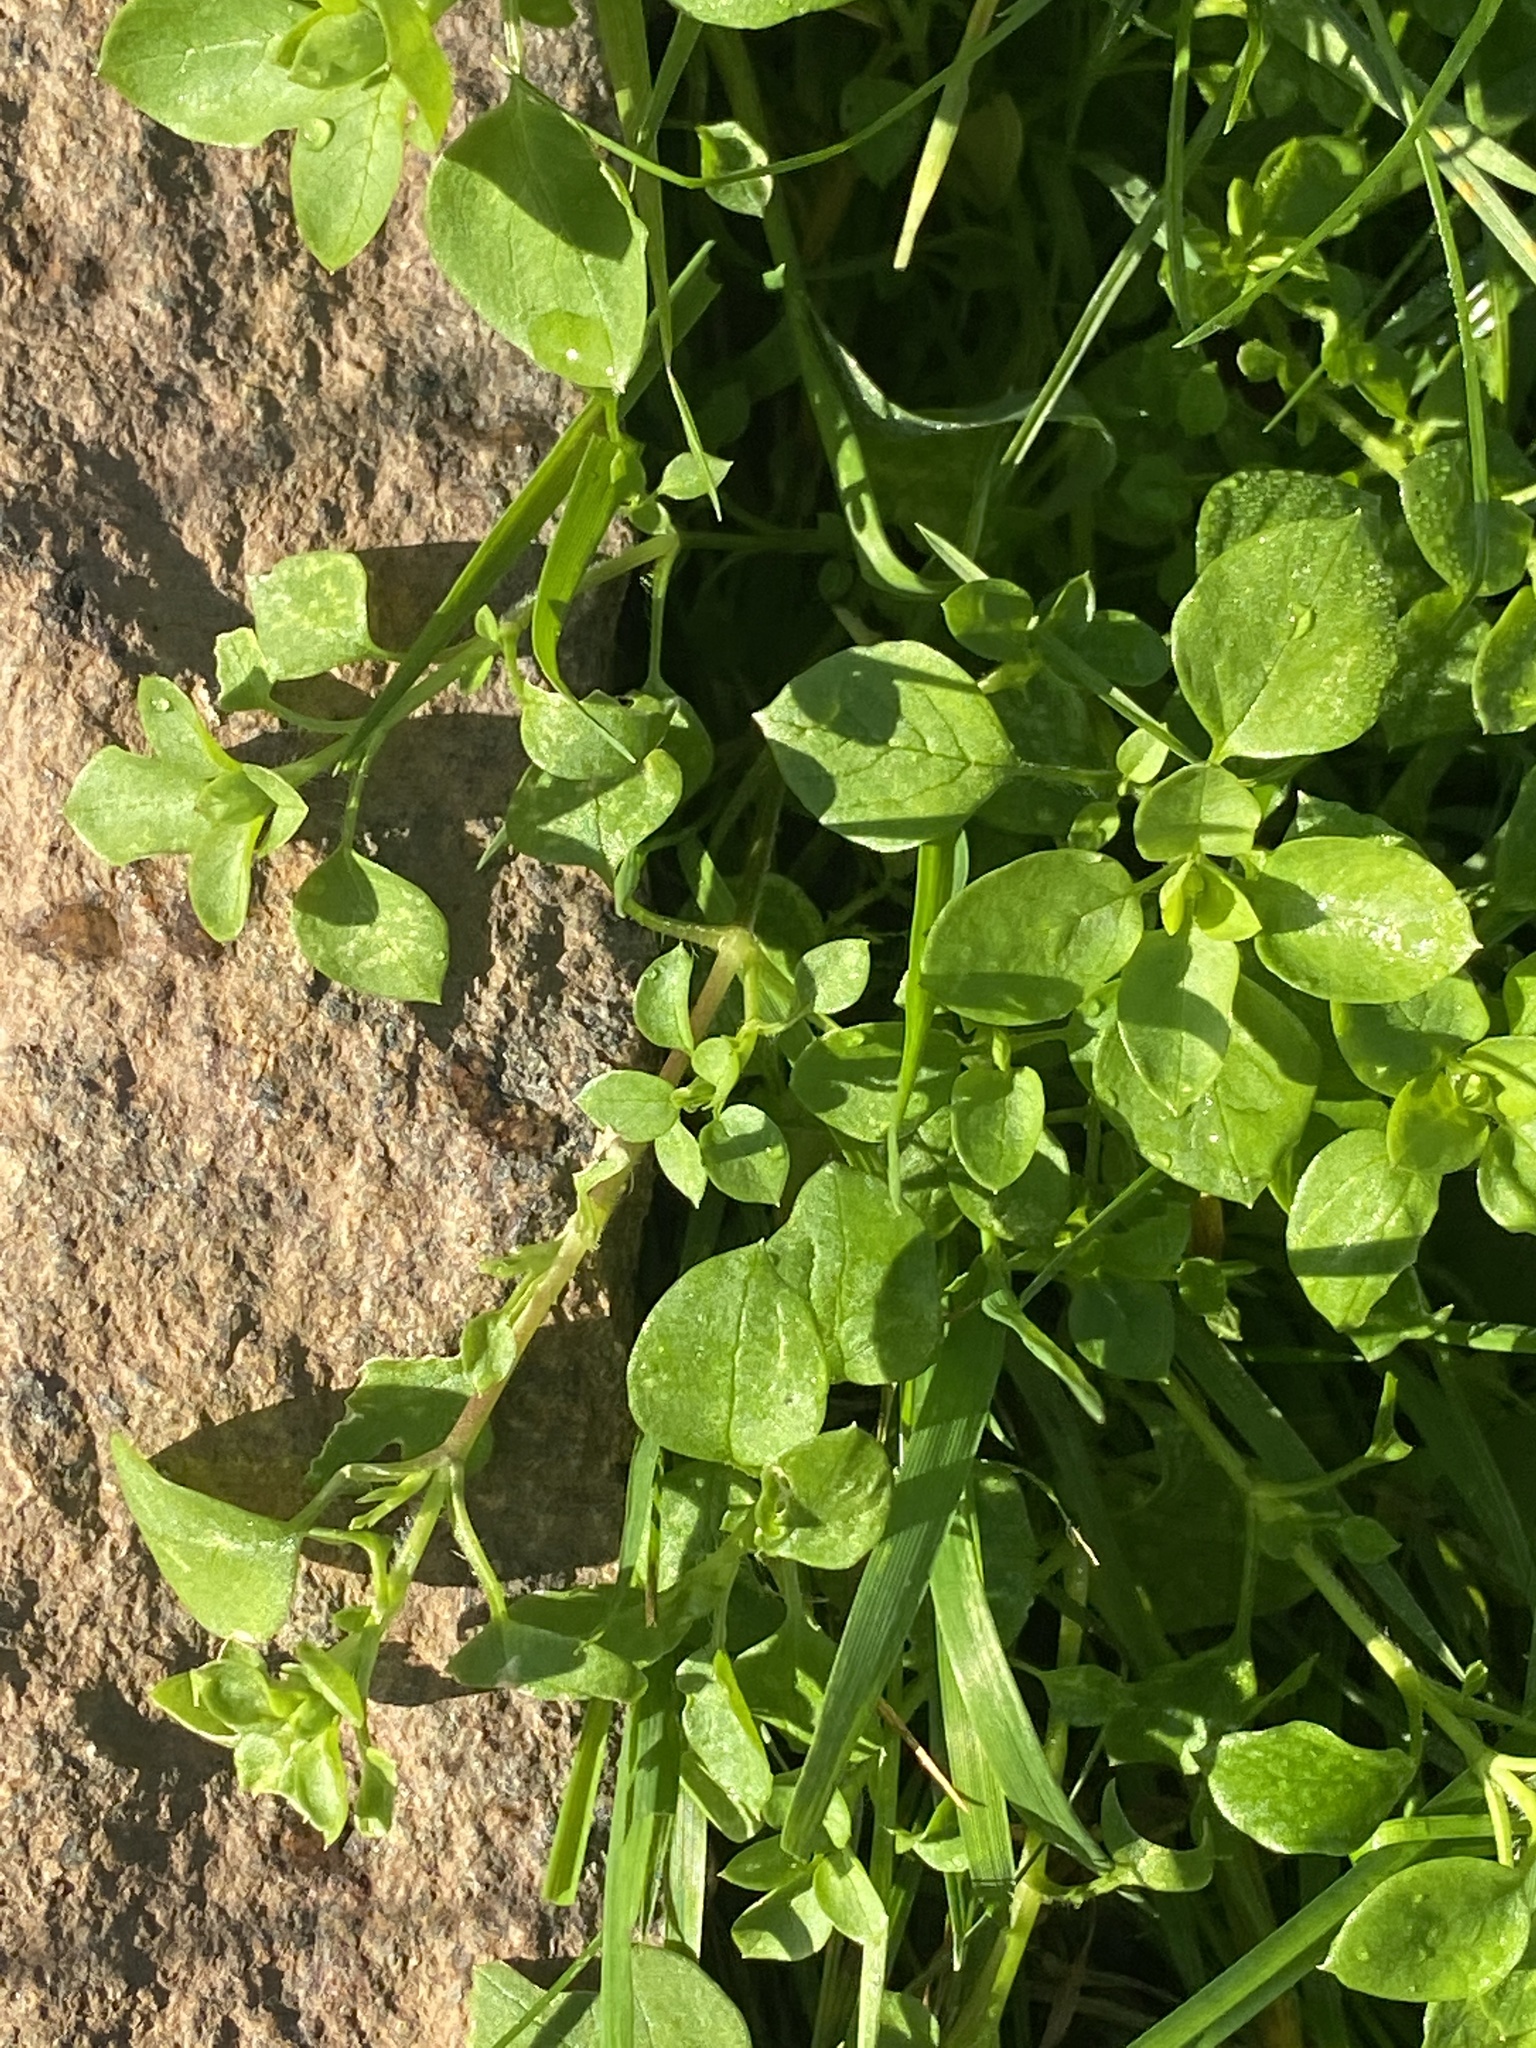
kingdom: Plantae
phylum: Tracheophyta
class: Magnoliopsida
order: Caryophyllales
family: Caryophyllaceae
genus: Stellaria
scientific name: Stellaria media
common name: Common chickweed
